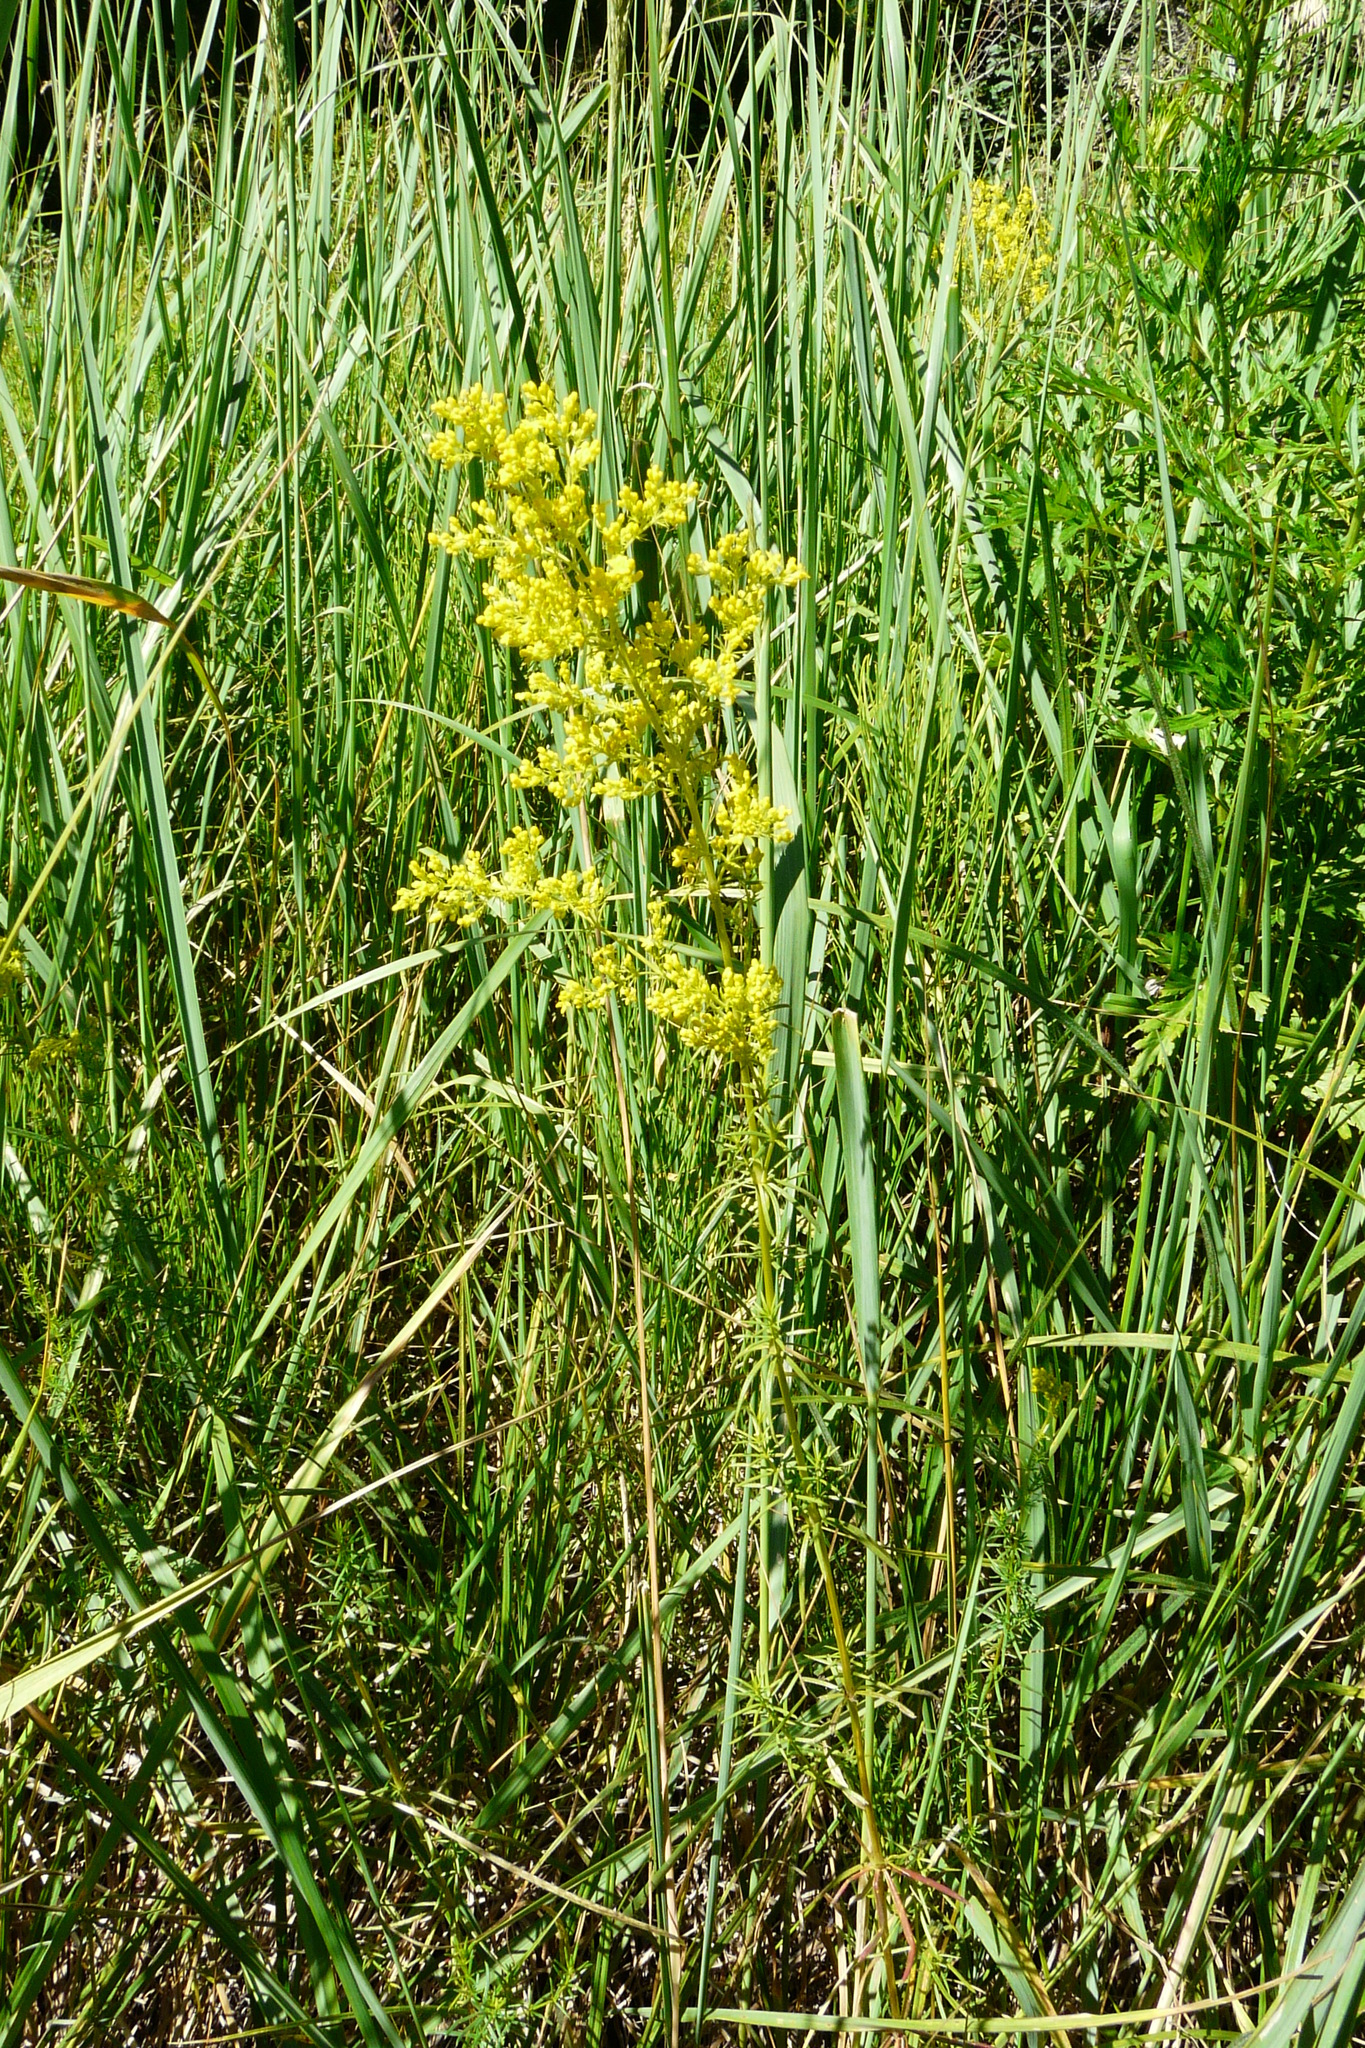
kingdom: Plantae
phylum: Tracheophyta
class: Magnoliopsida
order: Gentianales
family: Rubiaceae
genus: Galium
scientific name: Galium verum
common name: Lady's bedstraw
